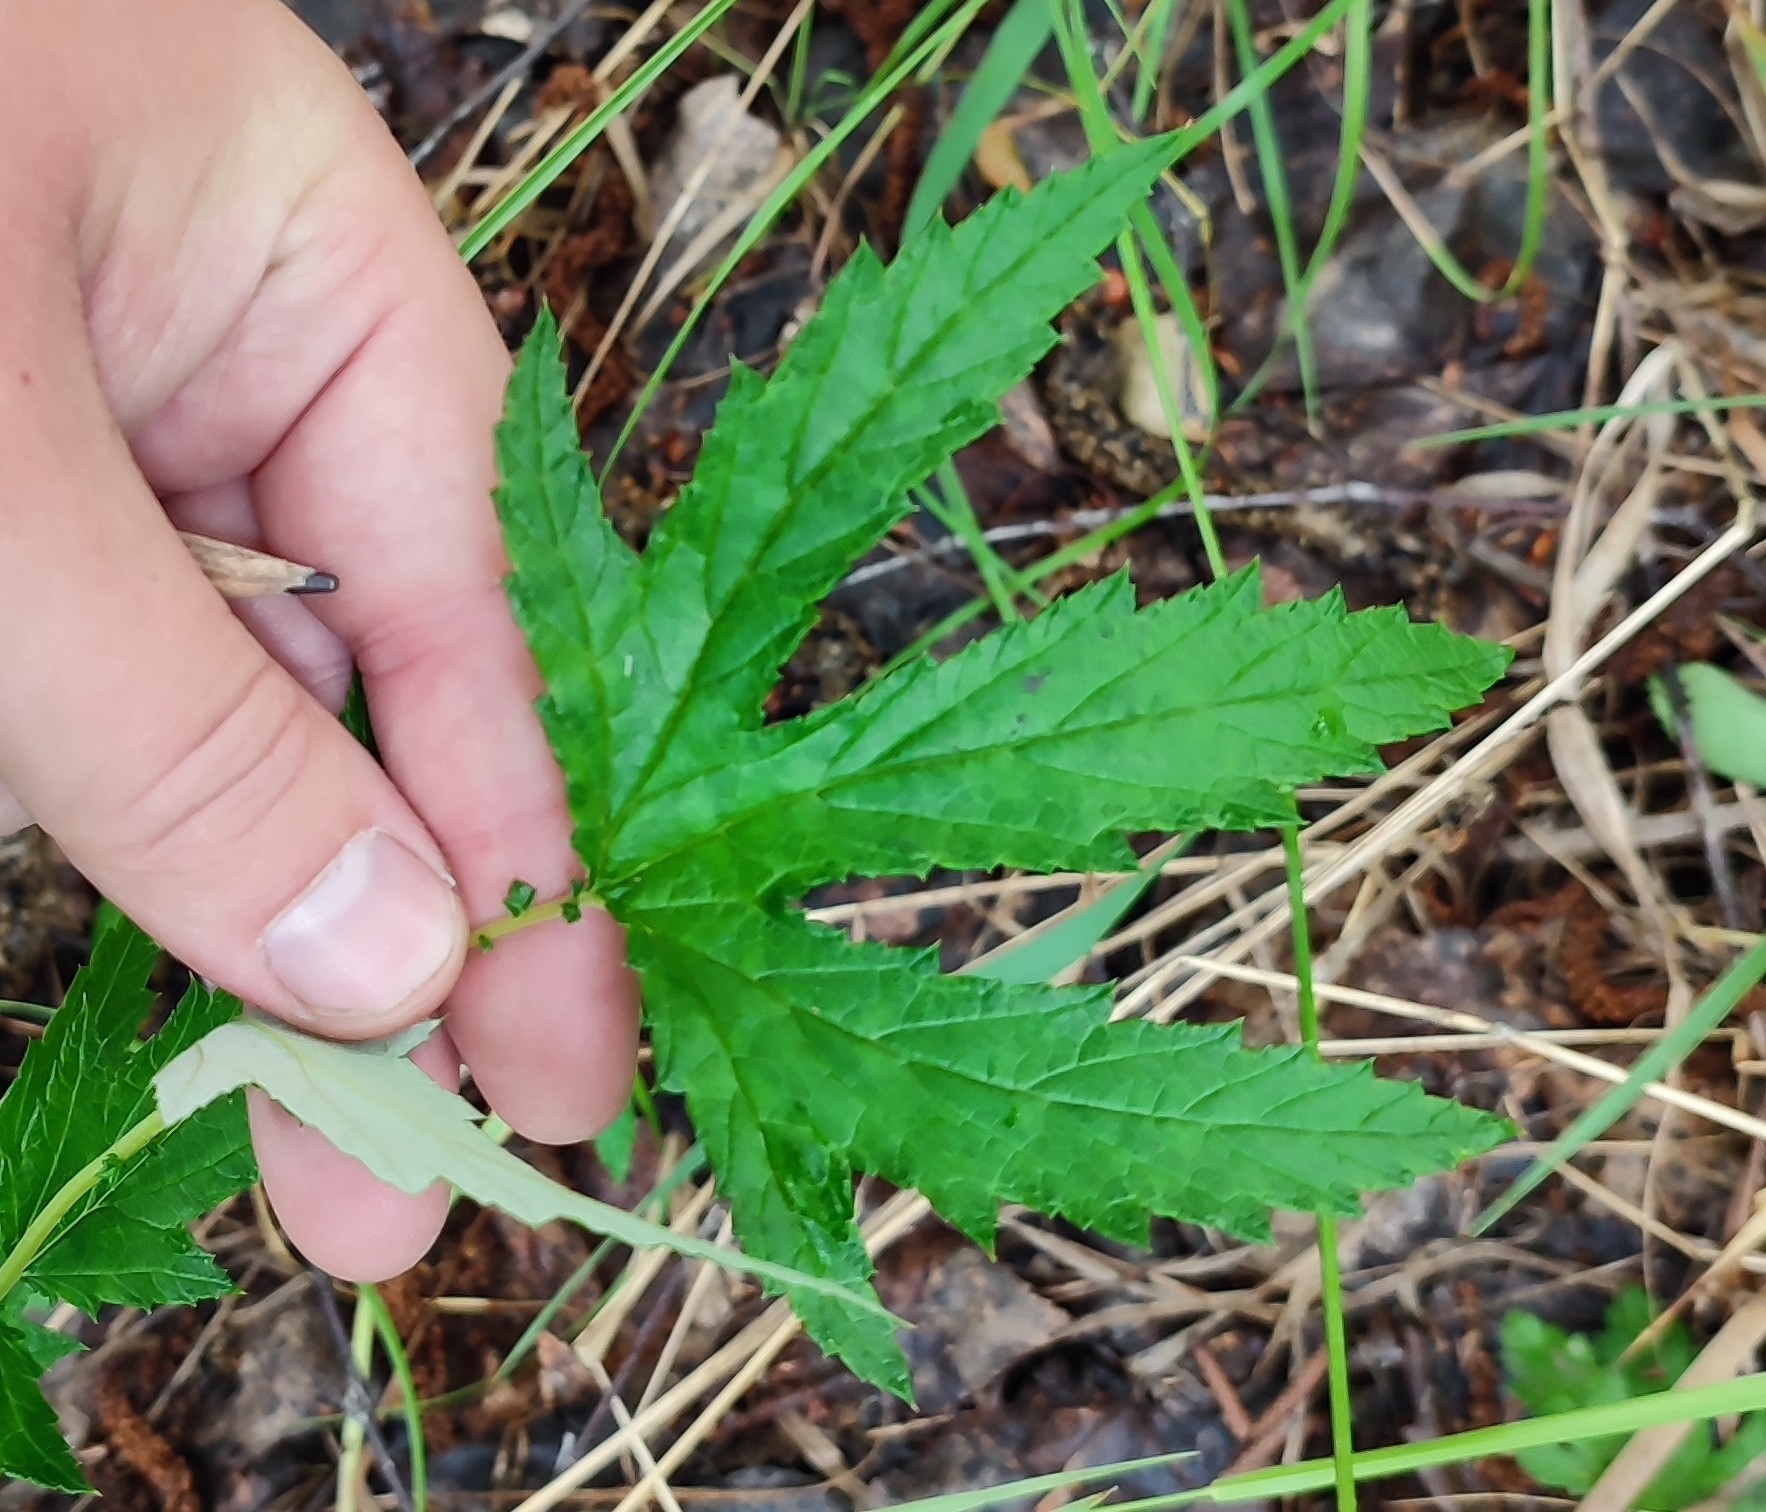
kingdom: Plantae
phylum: Tracheophyta
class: Magnoliopsida
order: Rosales
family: Rosaceae
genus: Filipendula
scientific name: Filipendula ulmaria
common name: Meadowsweet
